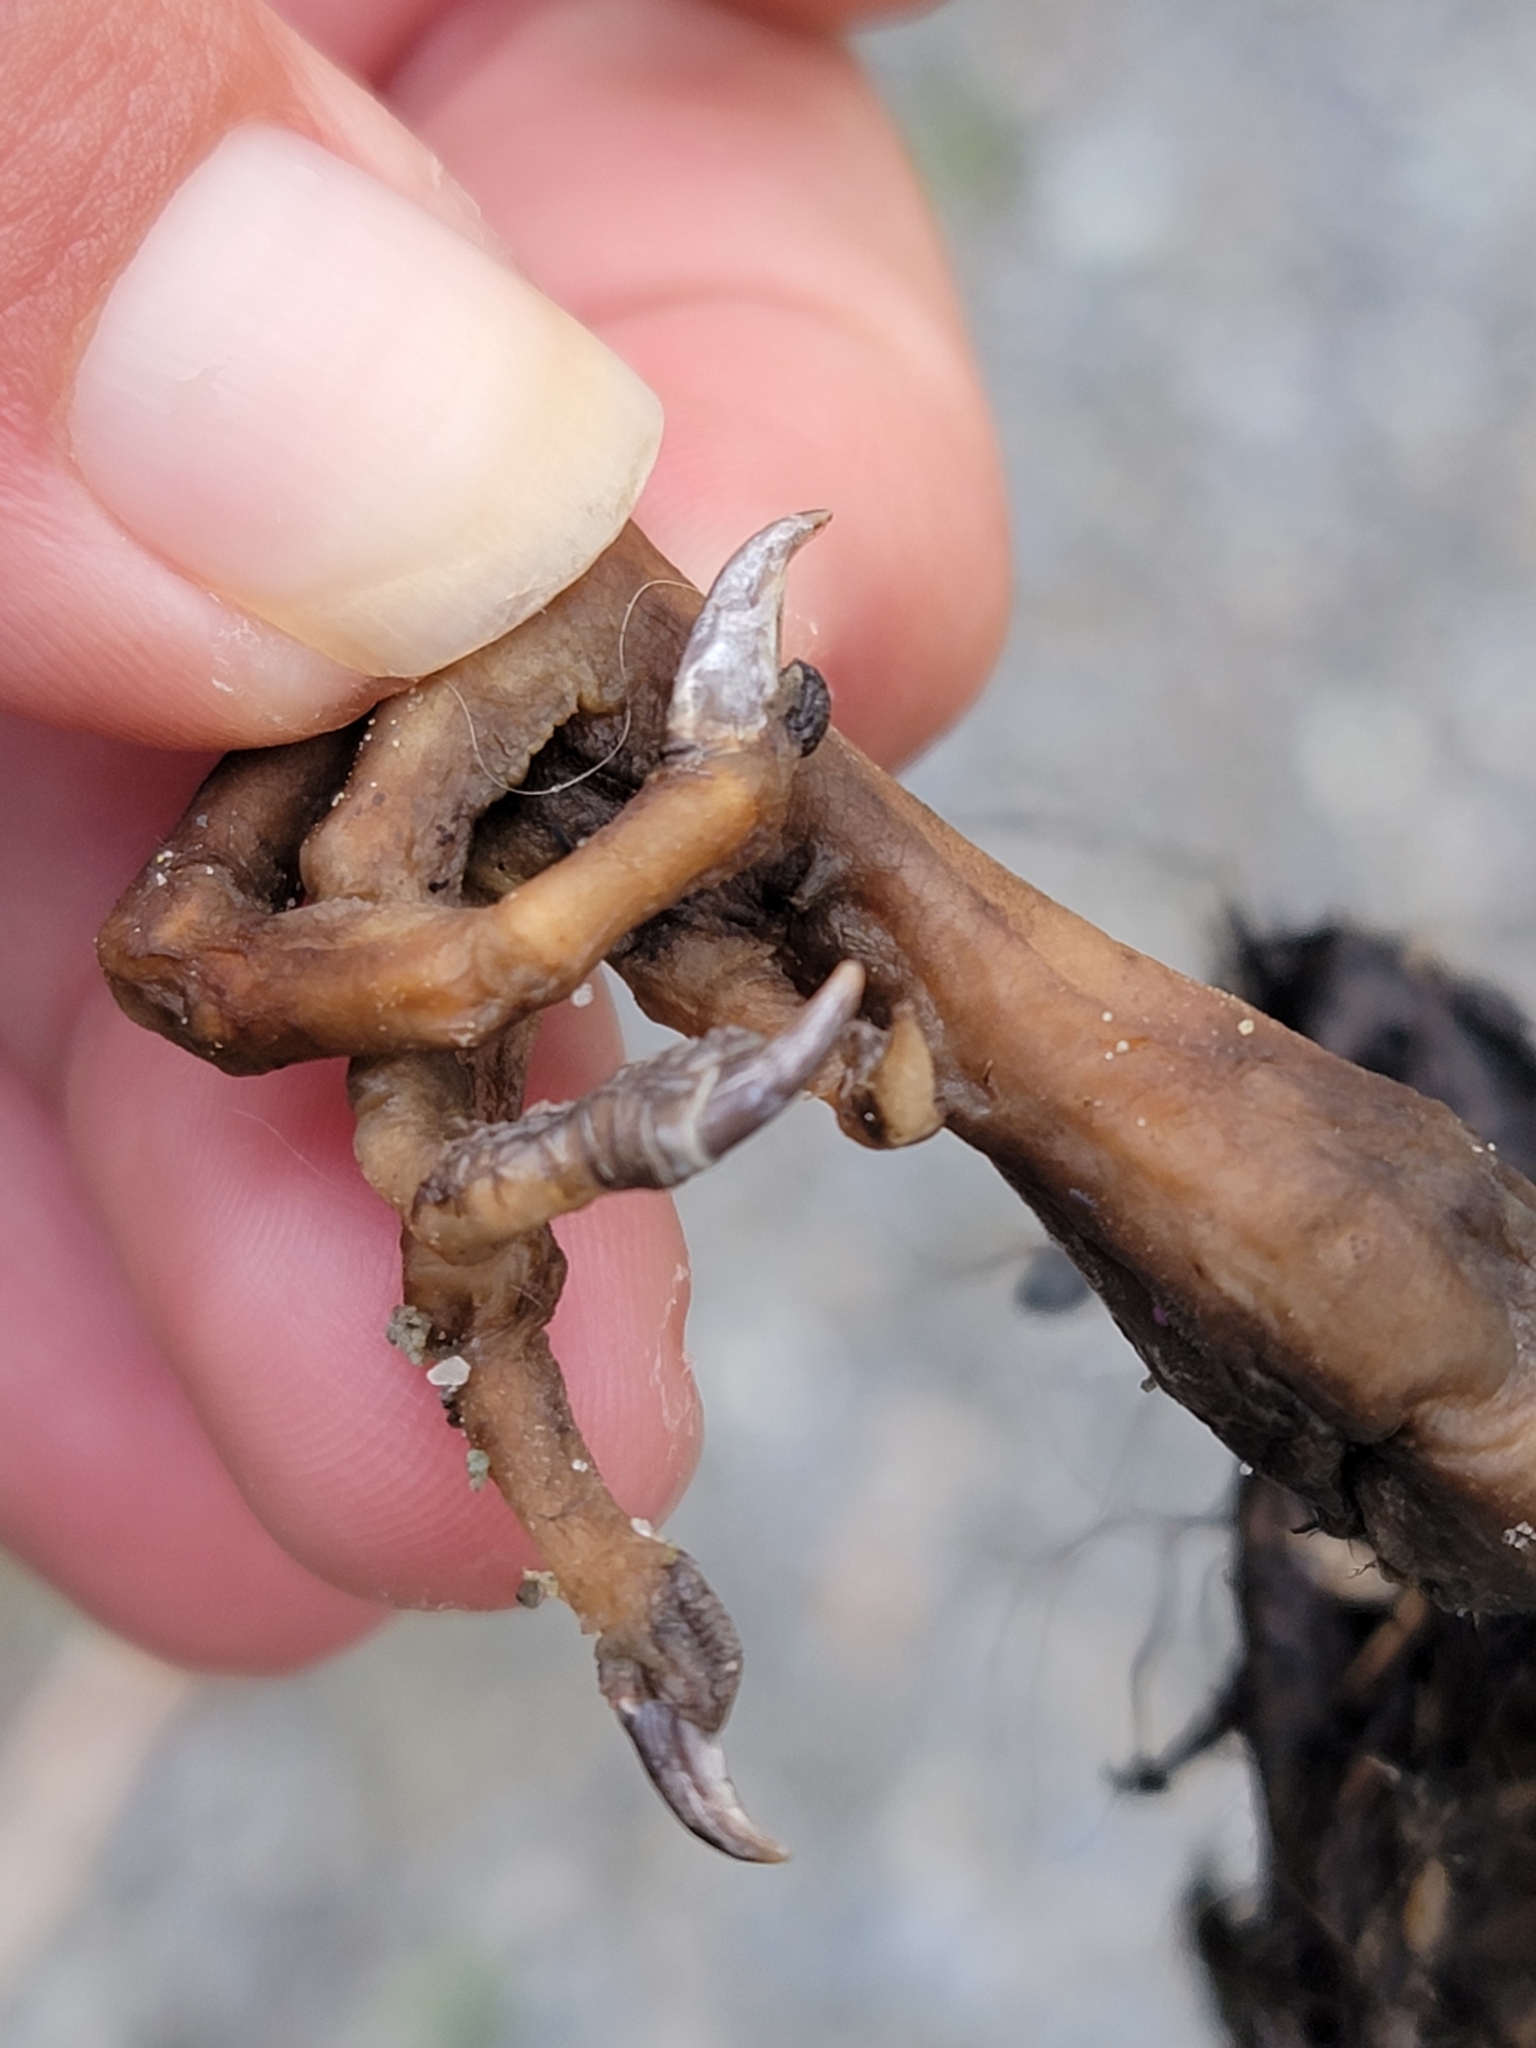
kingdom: Animalia
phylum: Chordata
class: Aves
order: Gruiformes
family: Rallidae
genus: Gallirallus
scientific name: Gallirallus australis
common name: Weka
